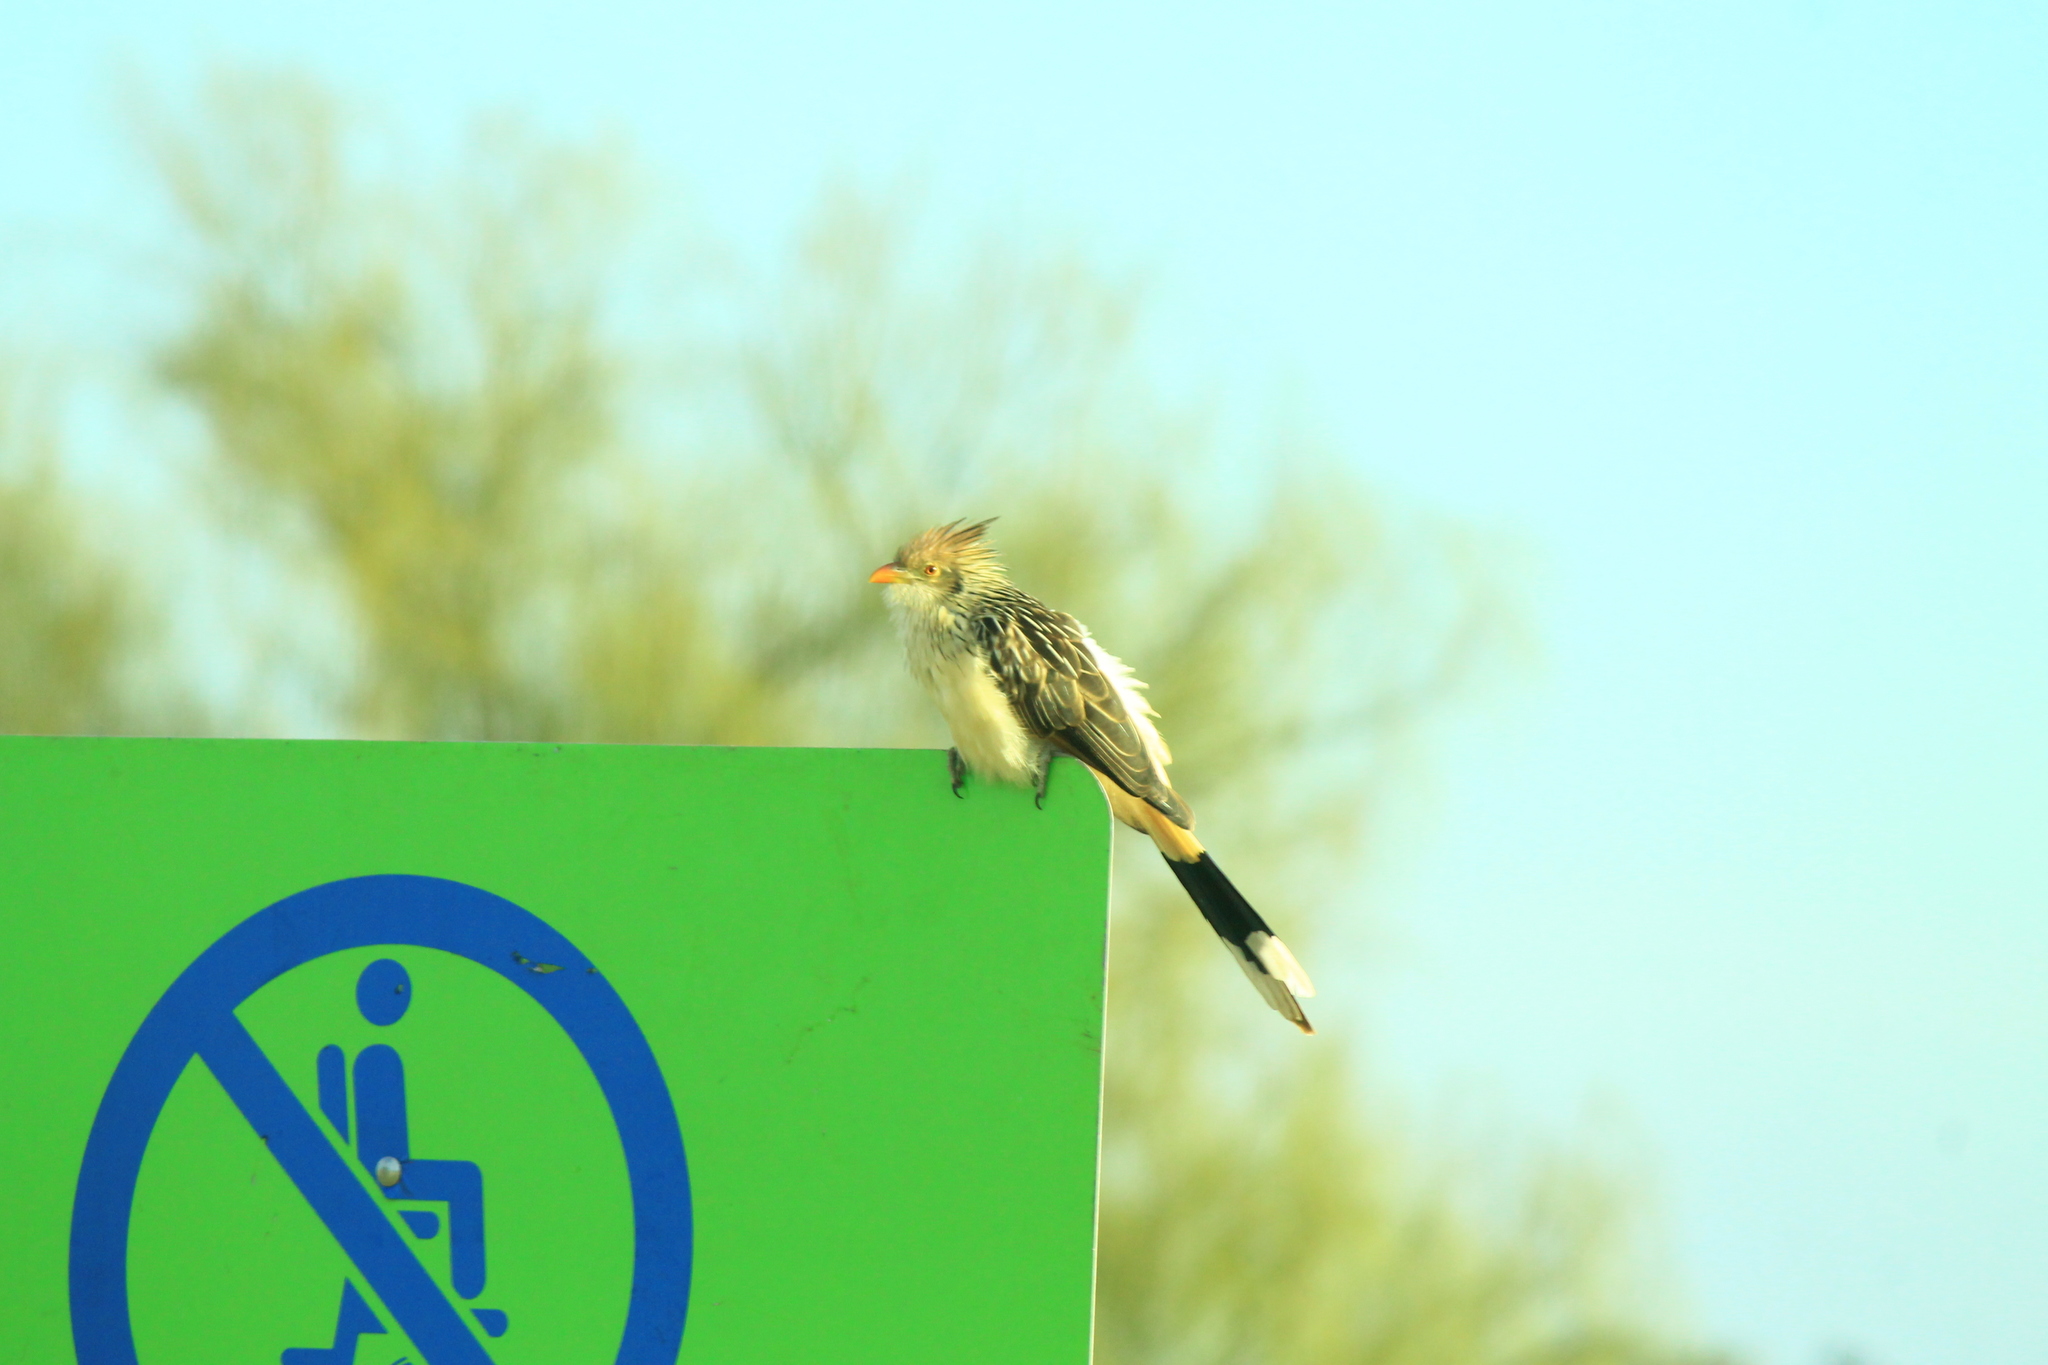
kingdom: Animalia
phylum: Chordata
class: Aves
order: Cuculiformes
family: Cuculidae
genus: Guira
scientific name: Guira guira
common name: Guira cuckoo
